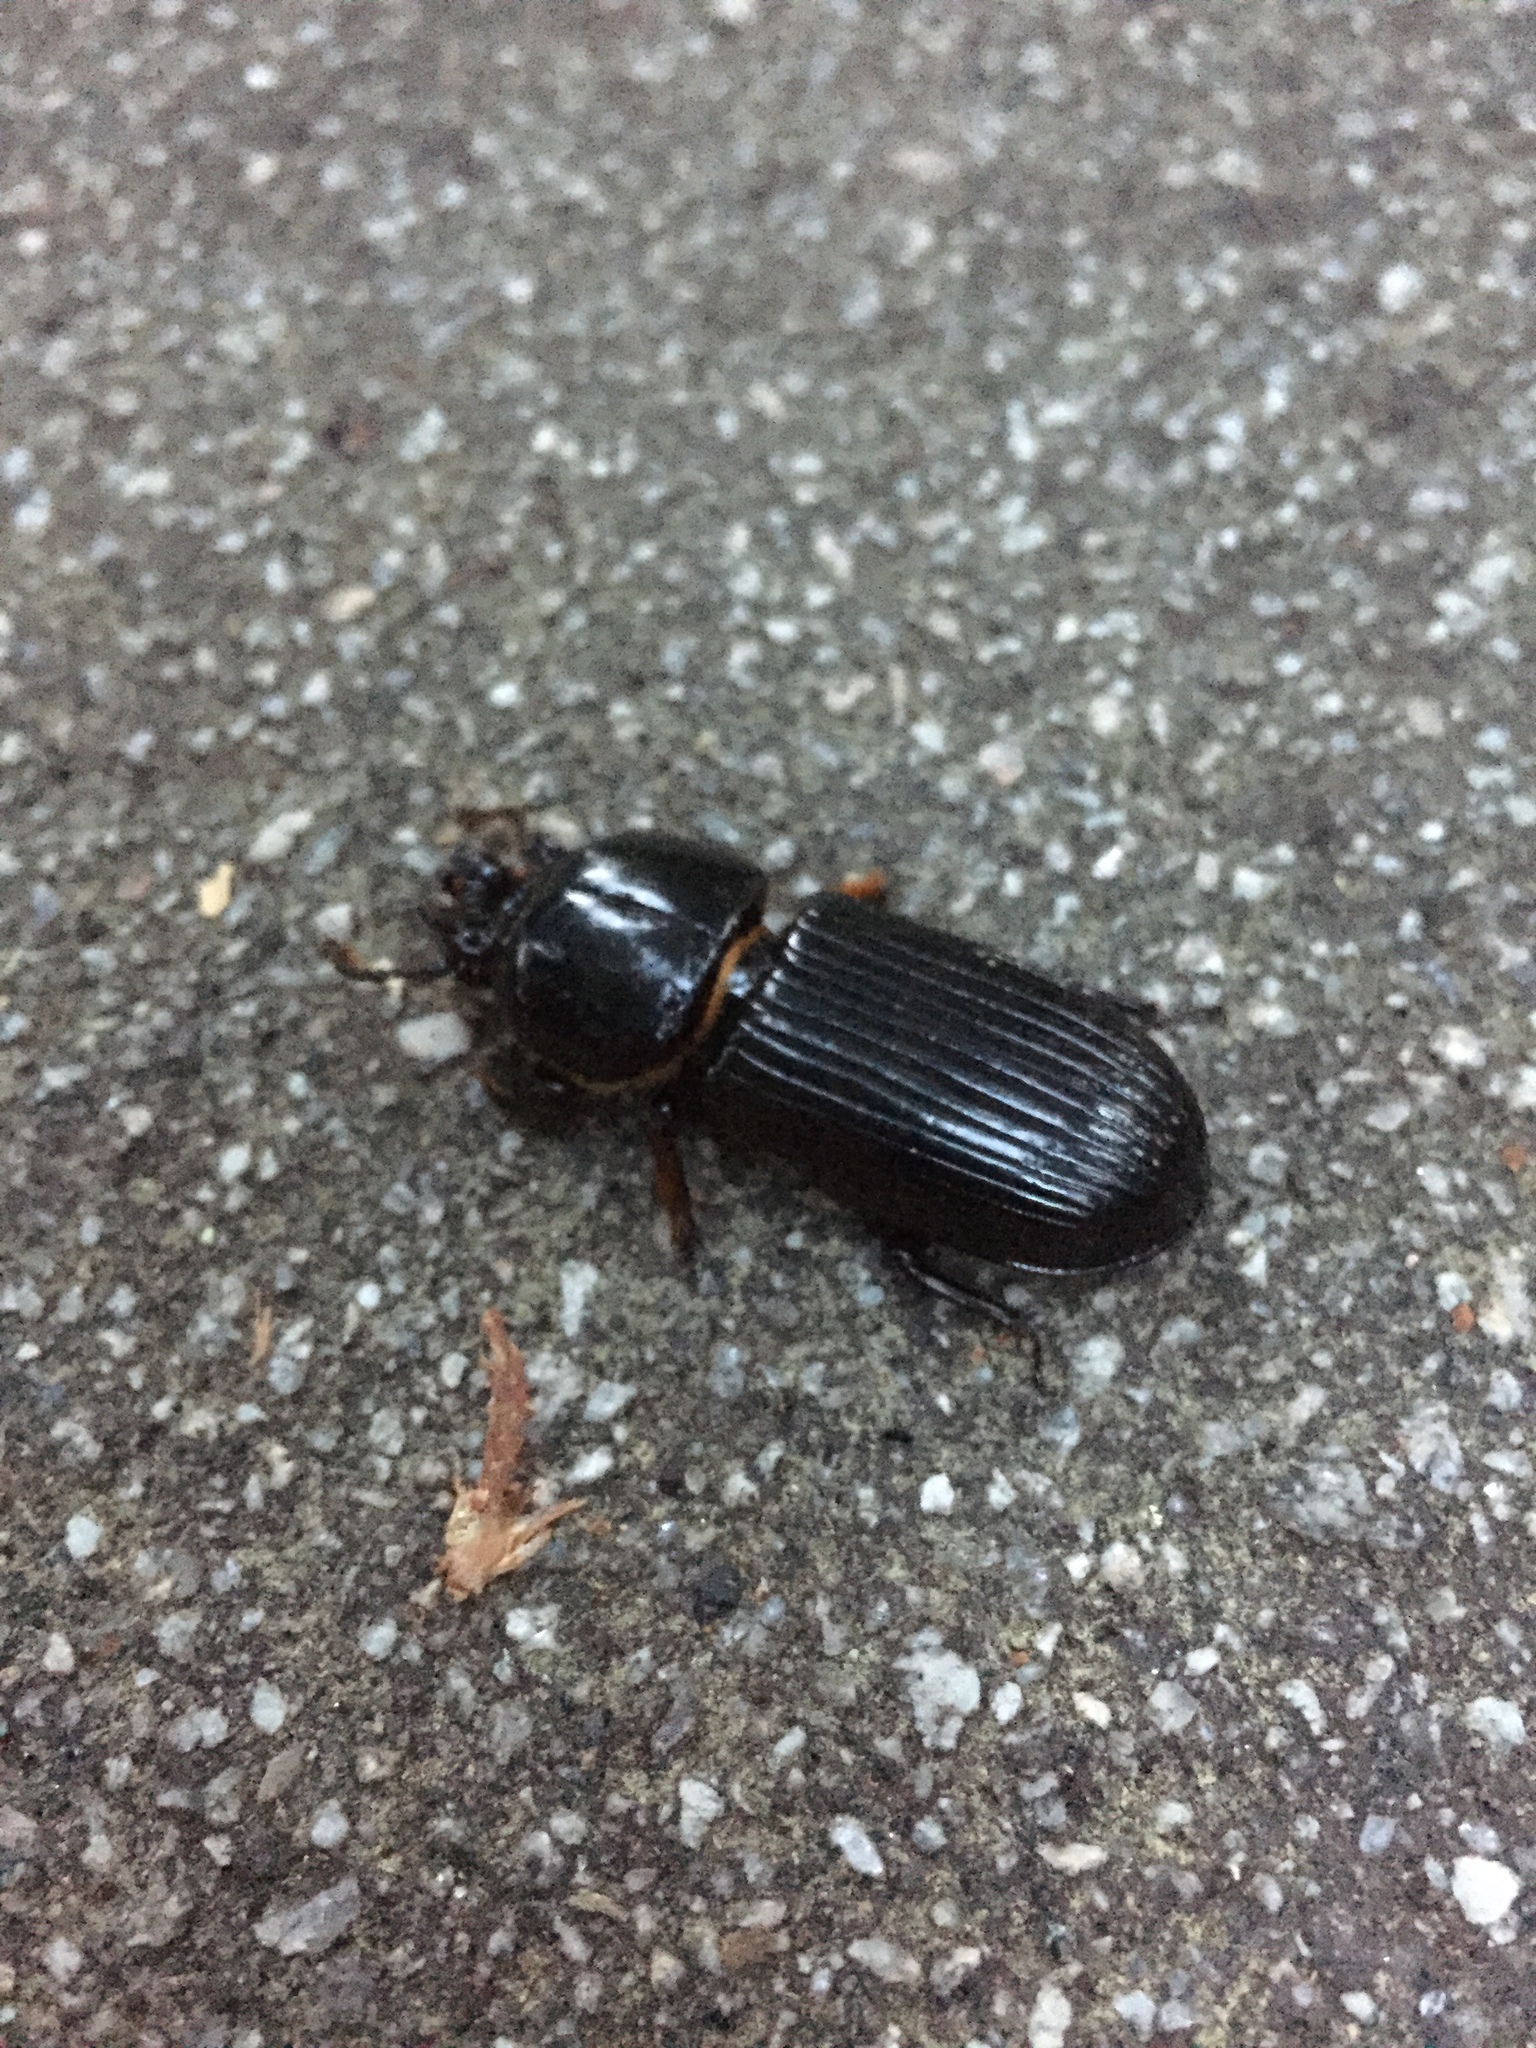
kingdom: Animalia
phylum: Arthropoda
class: Insecta
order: Coleoptera
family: Passalidae
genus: Odontotaenius
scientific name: Odontotaenius disjunctus
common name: Patent leather beetle
